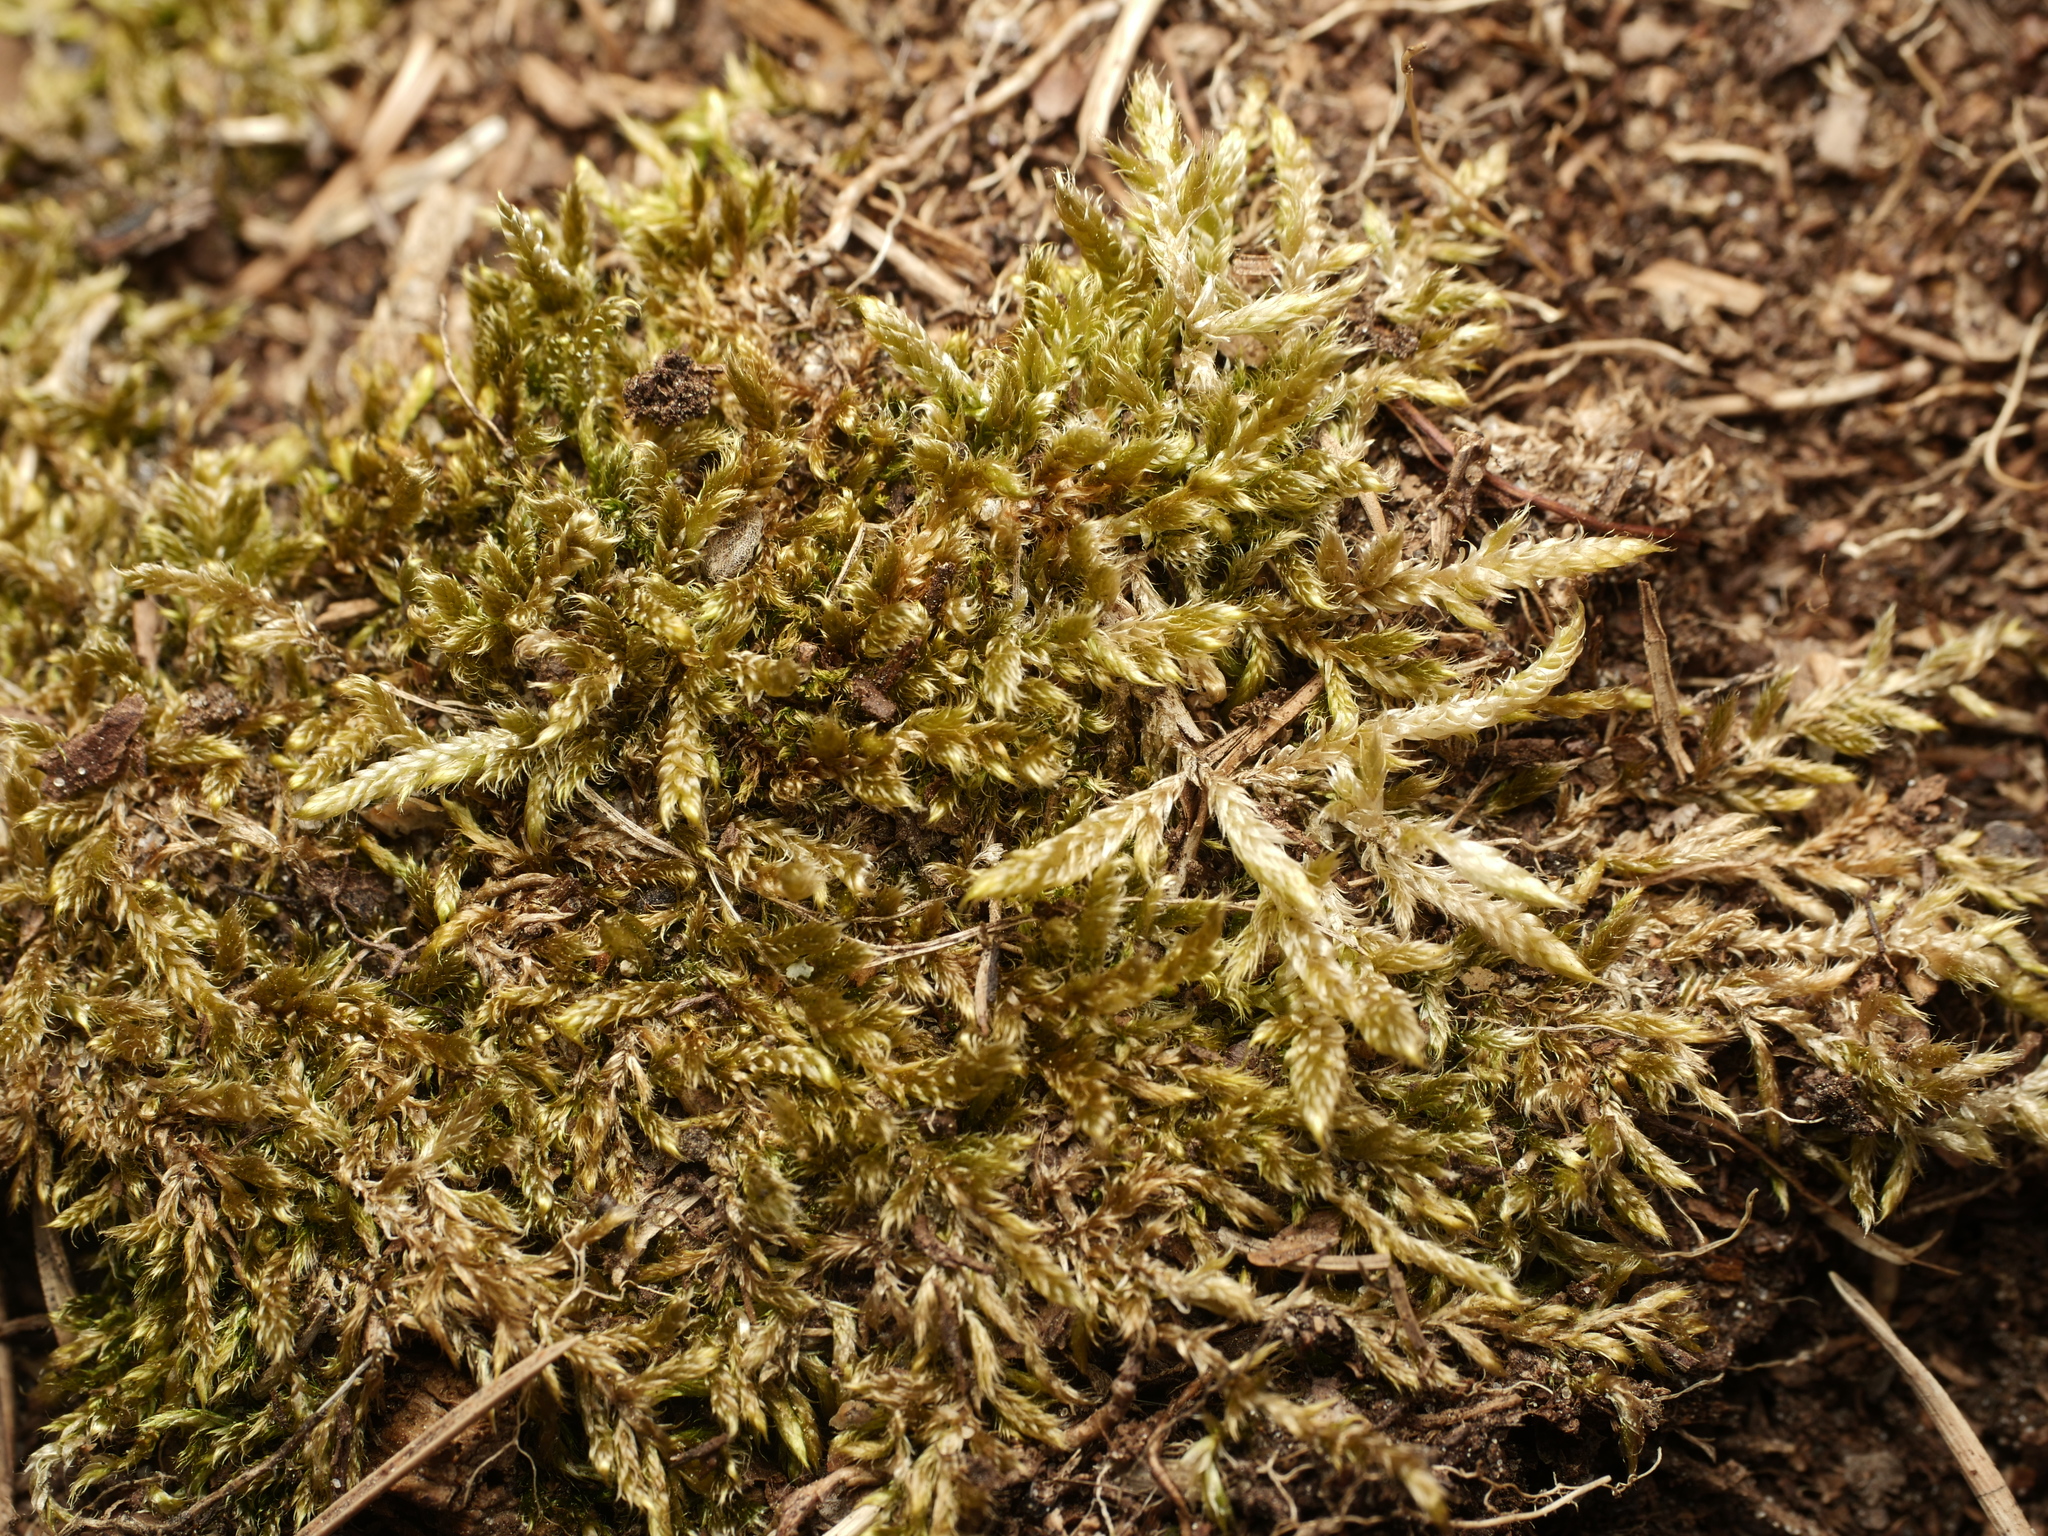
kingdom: Plantae
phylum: Bryophyta
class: Bryopsida
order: Hypnales
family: Hypnaceae
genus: Hypnum
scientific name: Hypnum cupressiforme
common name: Cypress-leaved plait-moss
